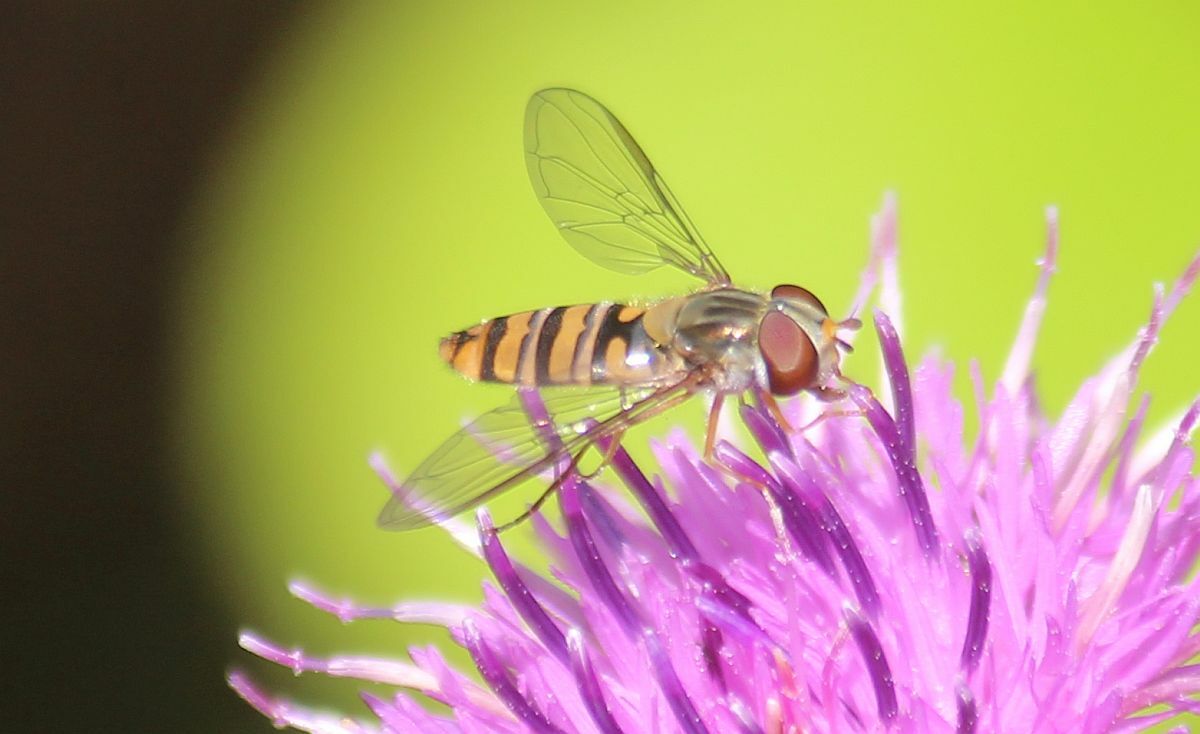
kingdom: Animalia
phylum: Arthropoda
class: Insecta
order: Diptera
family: Syrphidae
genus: Episyrphus
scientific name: Episyrphus balteatus
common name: Marmalade hoverfly
